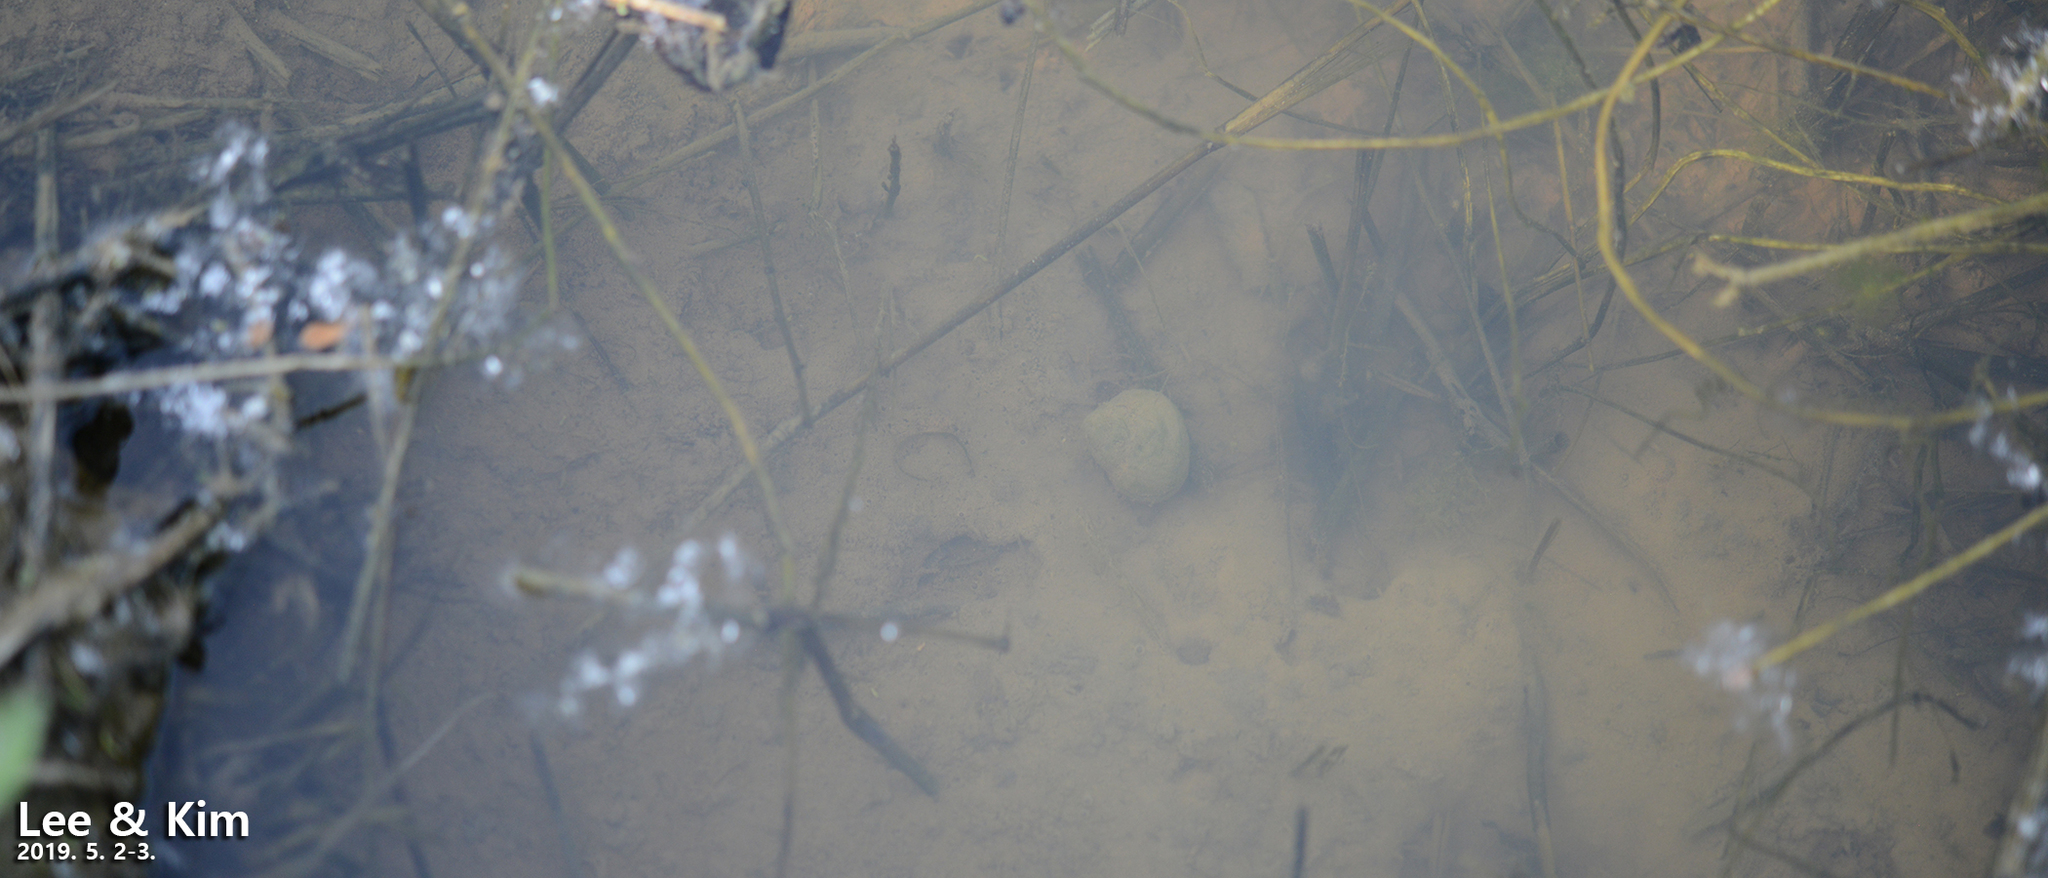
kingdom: Animalia
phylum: Mollusca
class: Gastropoda
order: Architaenioglossa
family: Viviparidae
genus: Cipangopaludina
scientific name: Cipangopaludina chinensis
